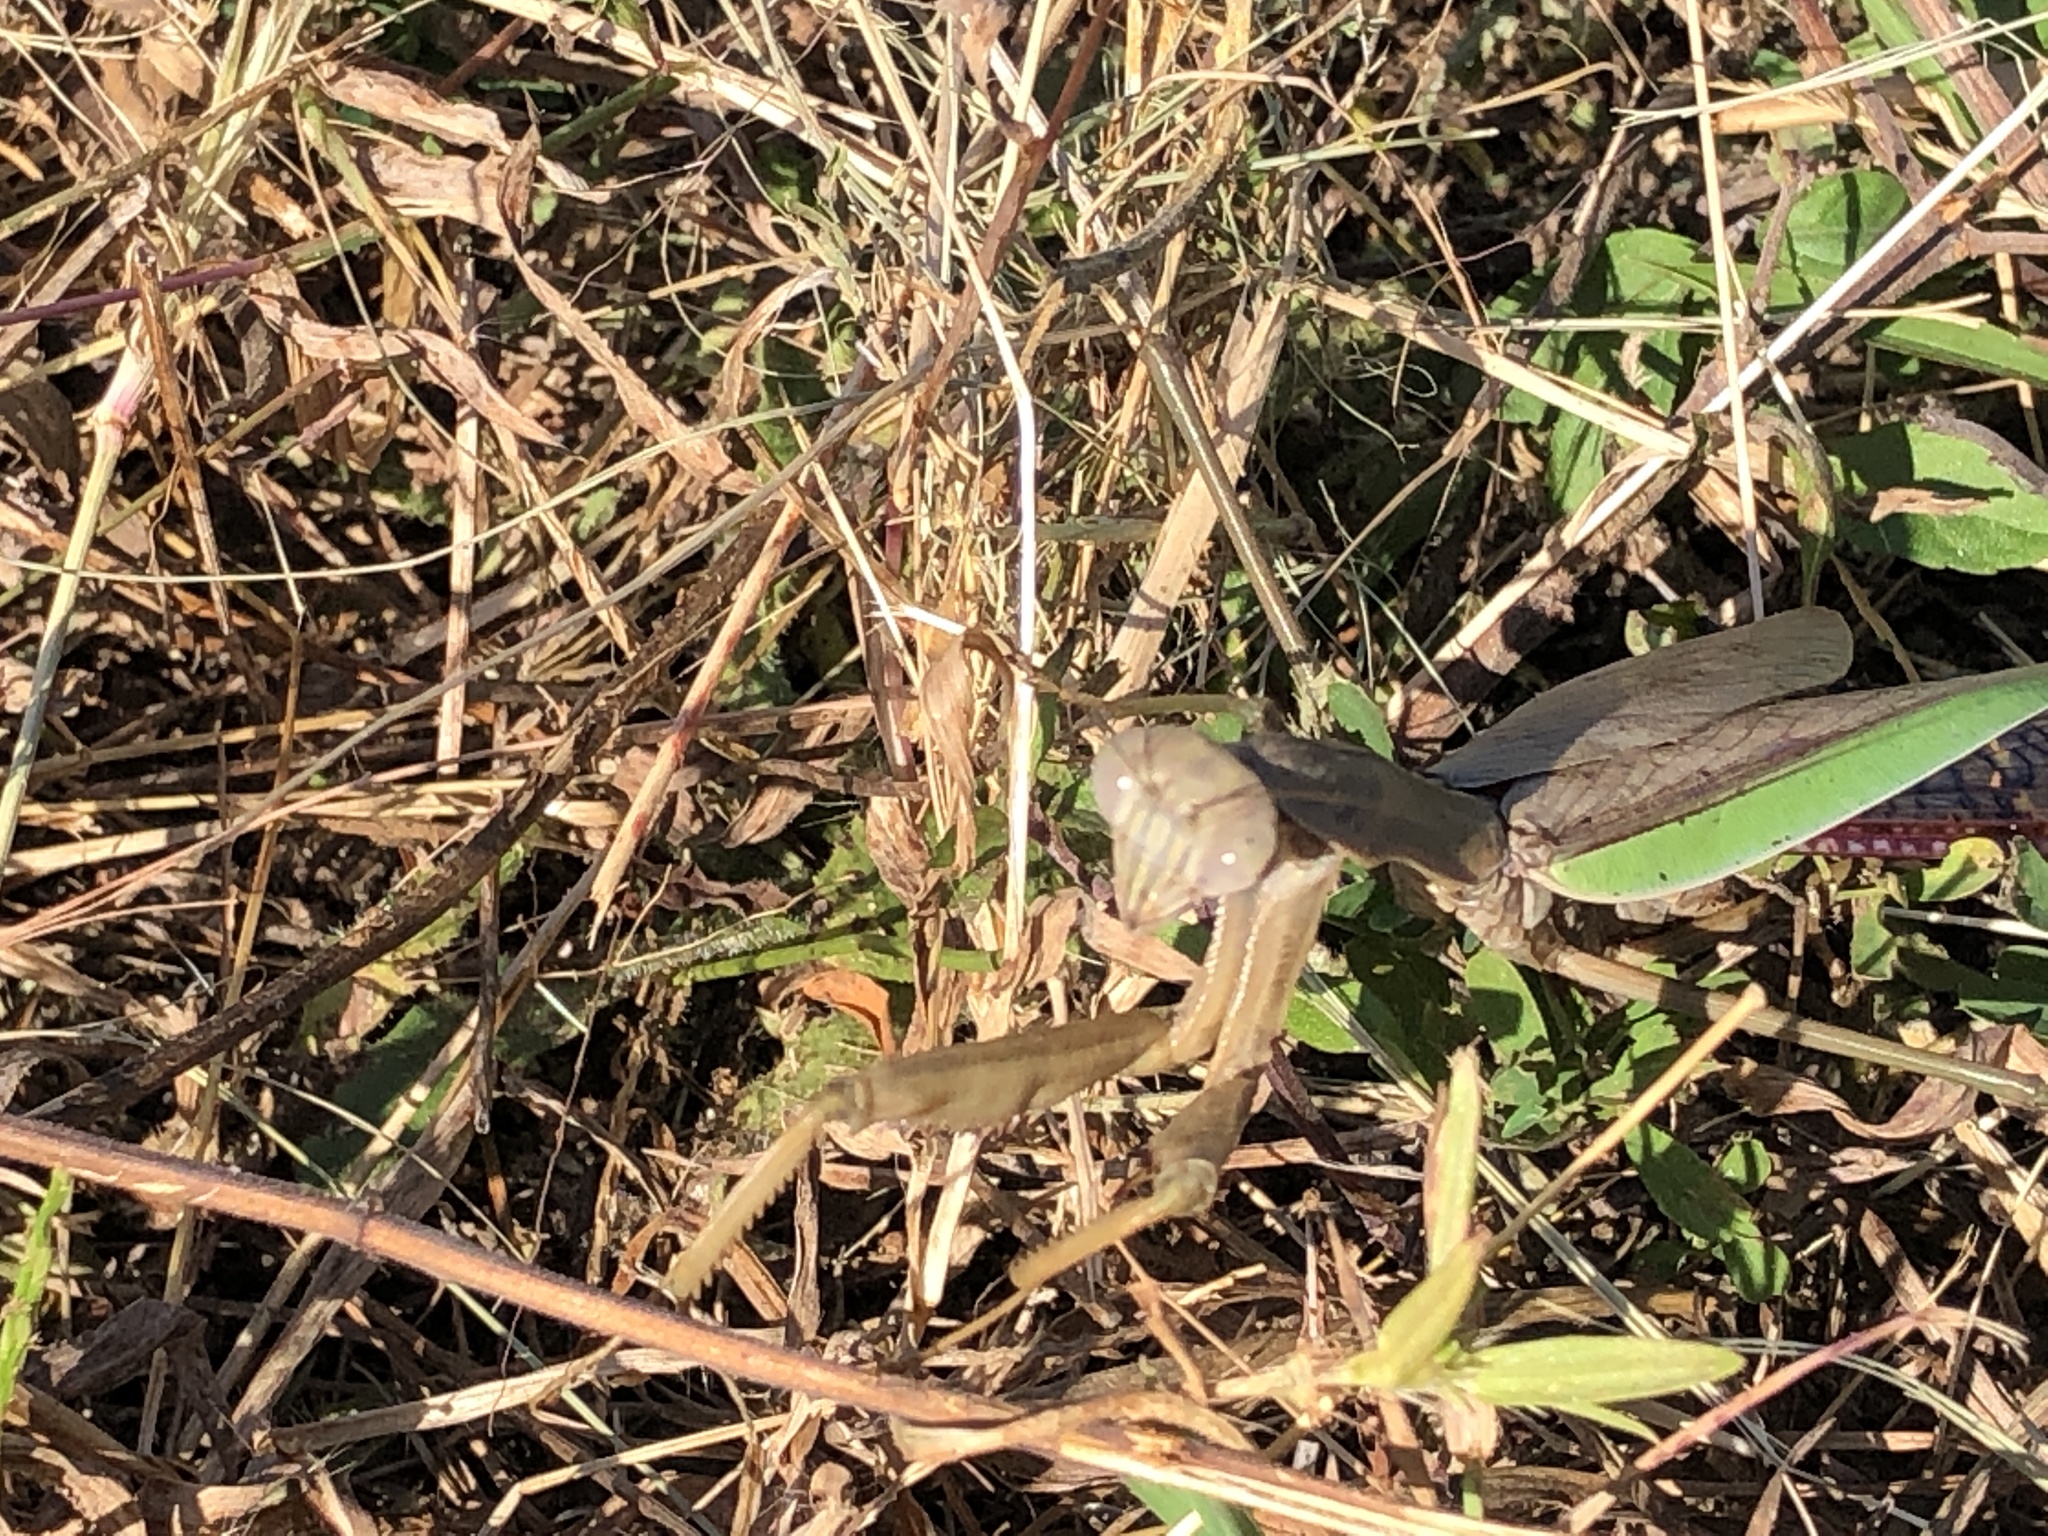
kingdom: Animalia
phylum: Arthropoda
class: Insecta
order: Mantodea
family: Mantidae
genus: Tenodera
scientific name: Tenodera sinensis
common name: Chinese mantis
